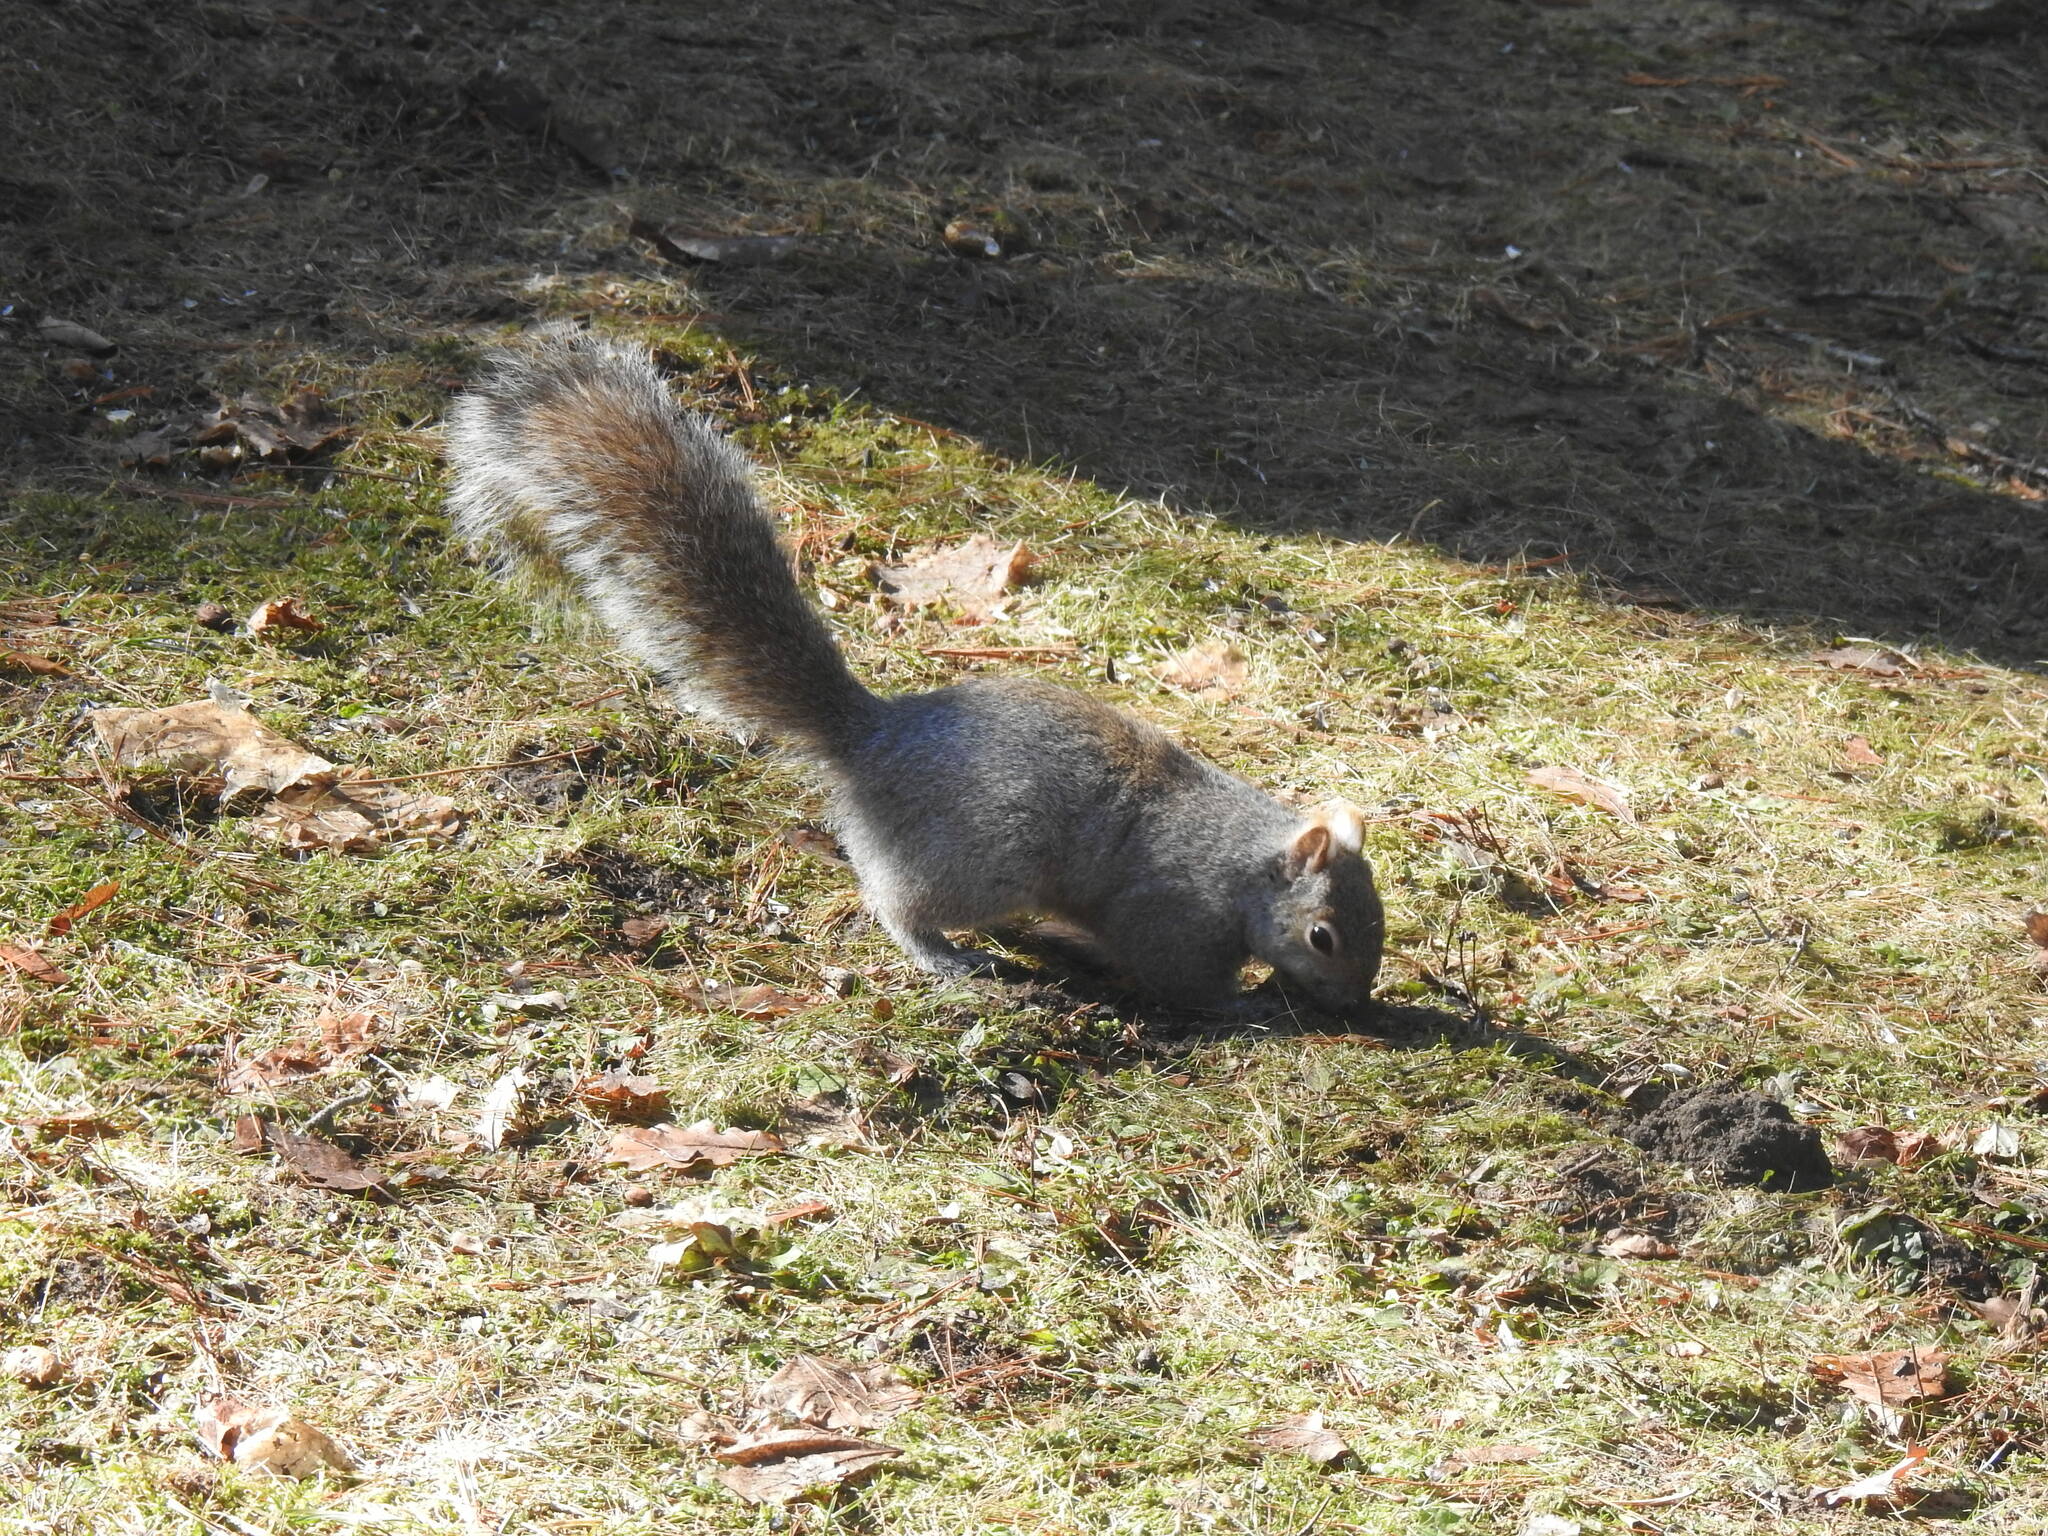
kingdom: Animalia
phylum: Chordata
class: Mammalia
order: Rodentia
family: Sciuridae
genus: Sciurus
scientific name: Sciurus carolinensis
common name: Eastern gray squirrel
